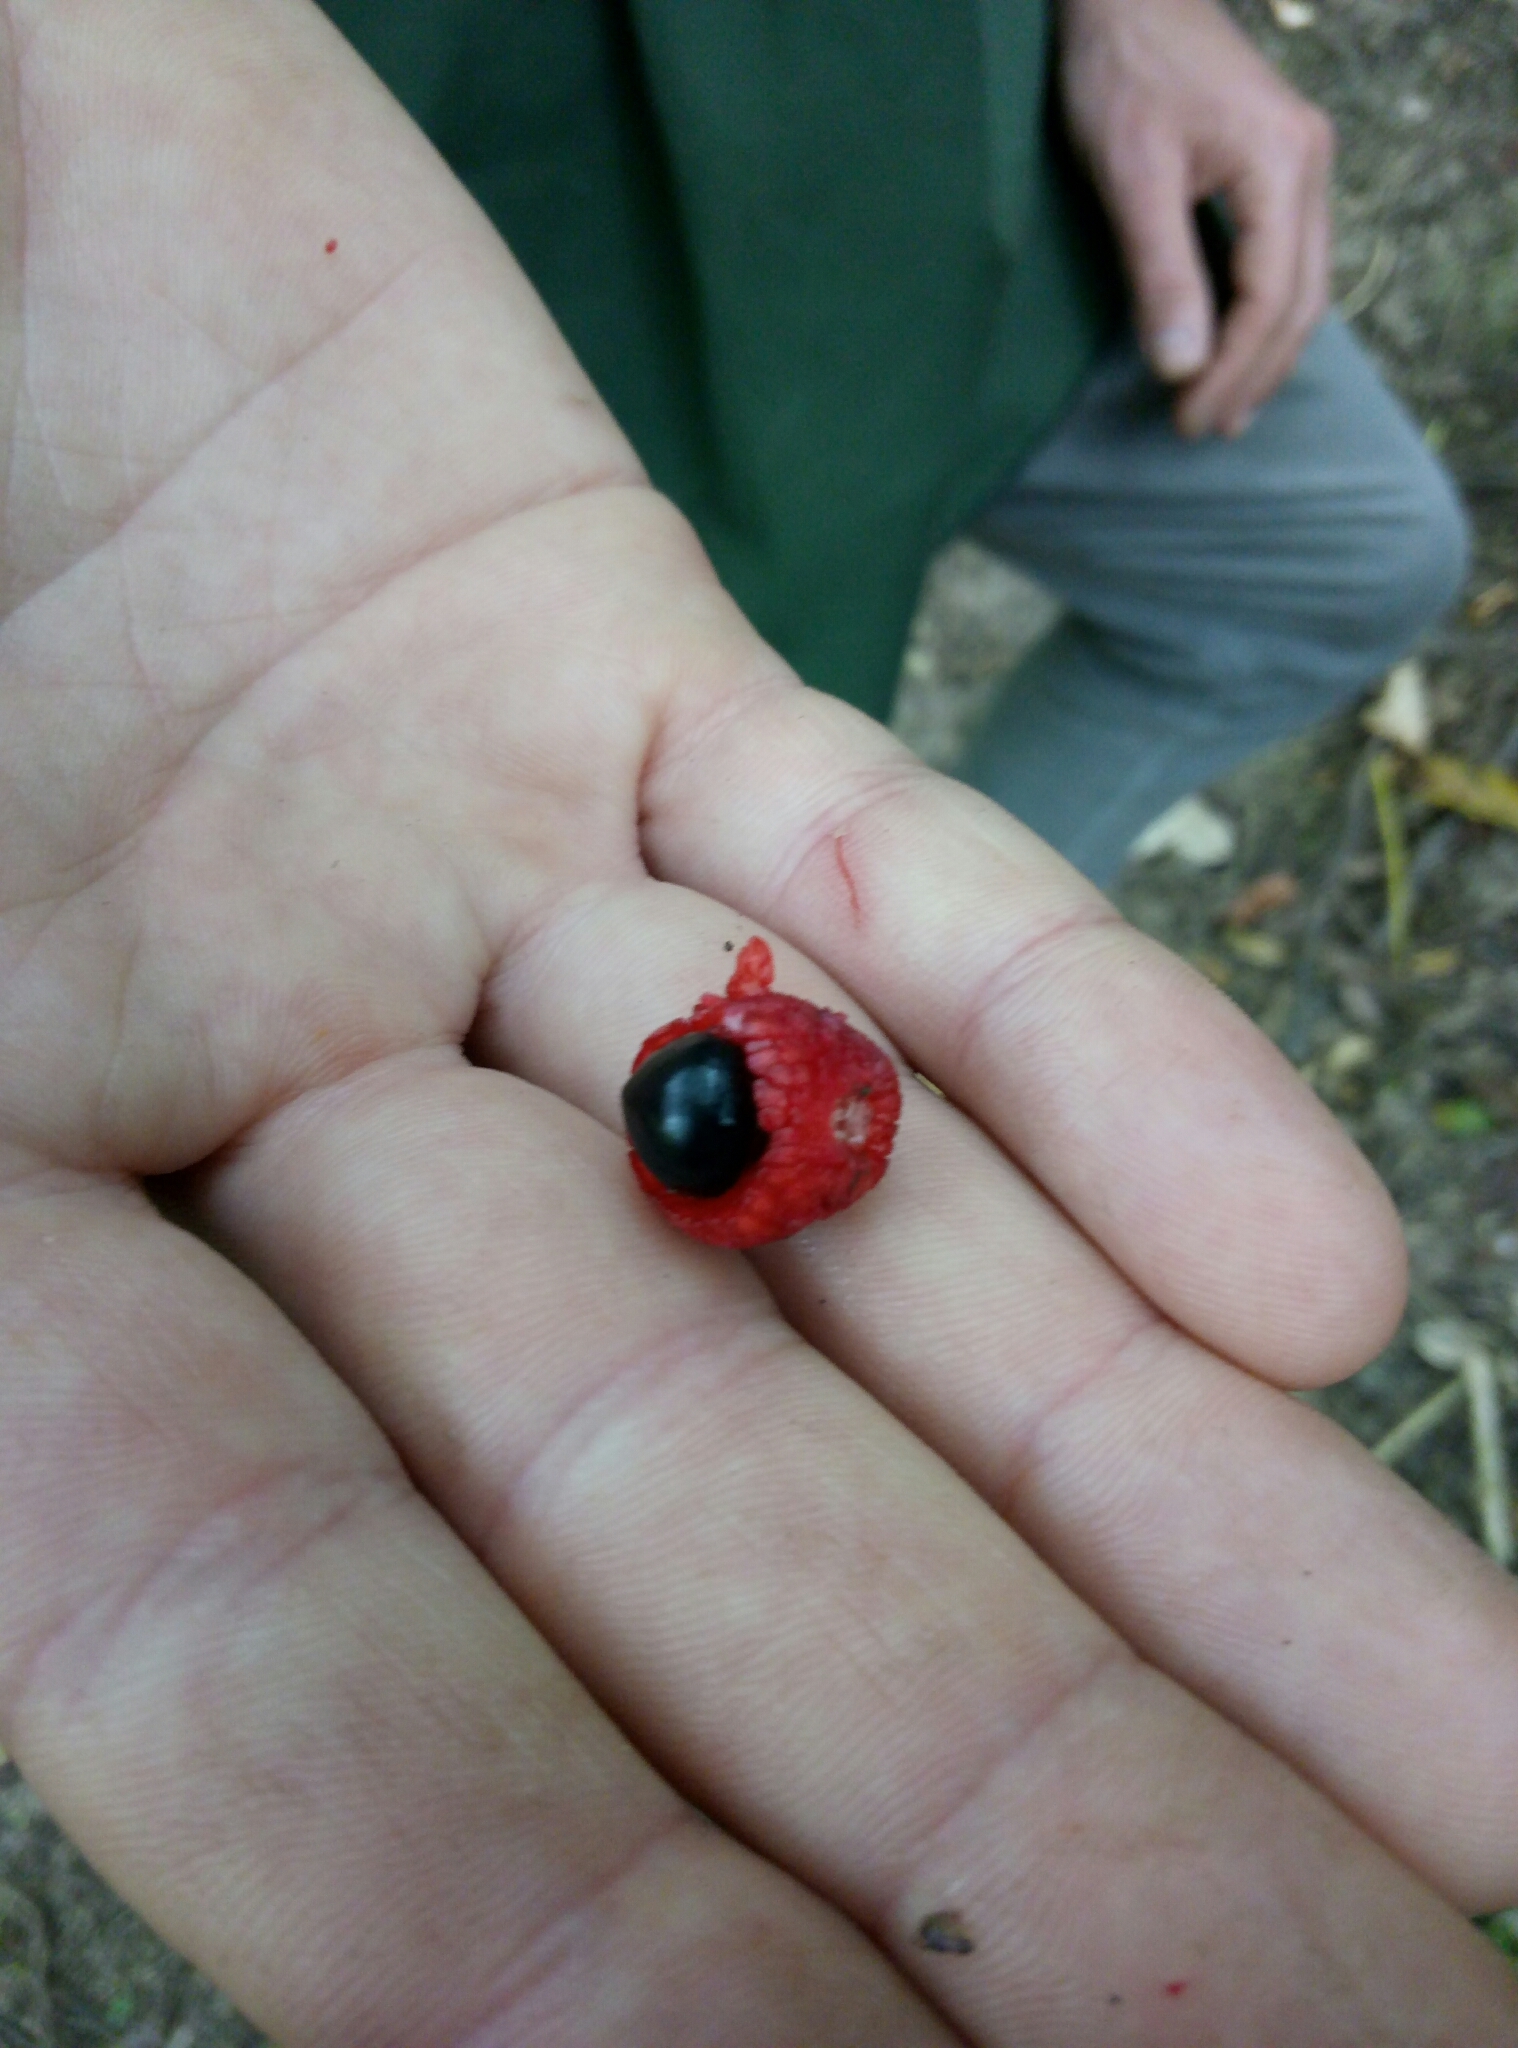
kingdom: Plantae
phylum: Tracheophyta
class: Magnoliopsida
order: Sapindales
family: Sapindaceae
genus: Alectryon
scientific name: Alectryon excelsus
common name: Three kings titoki
